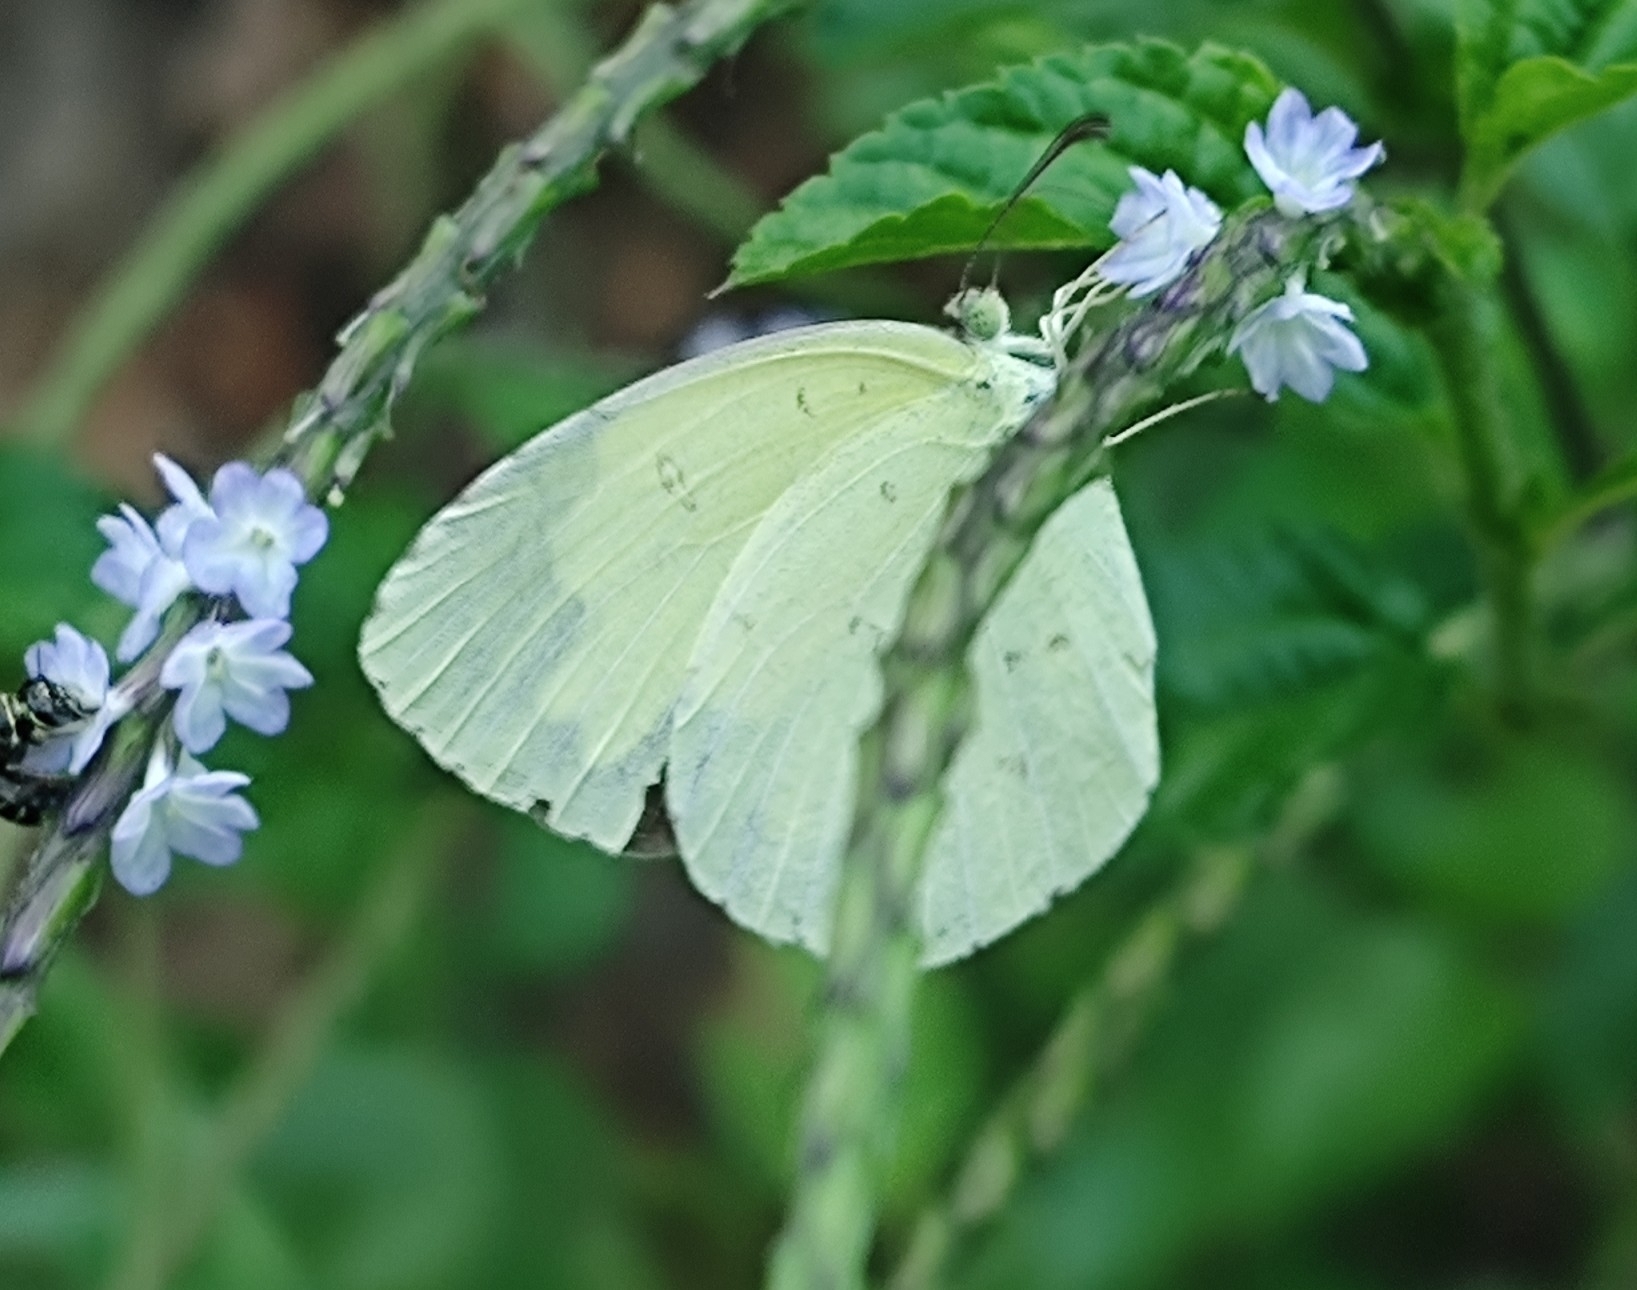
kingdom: Animalia
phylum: Arthropoda
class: Insecta
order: Lepidoptera
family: Pieridae
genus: Eurema
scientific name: Eurema hecabe
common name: Pale grass yellow
